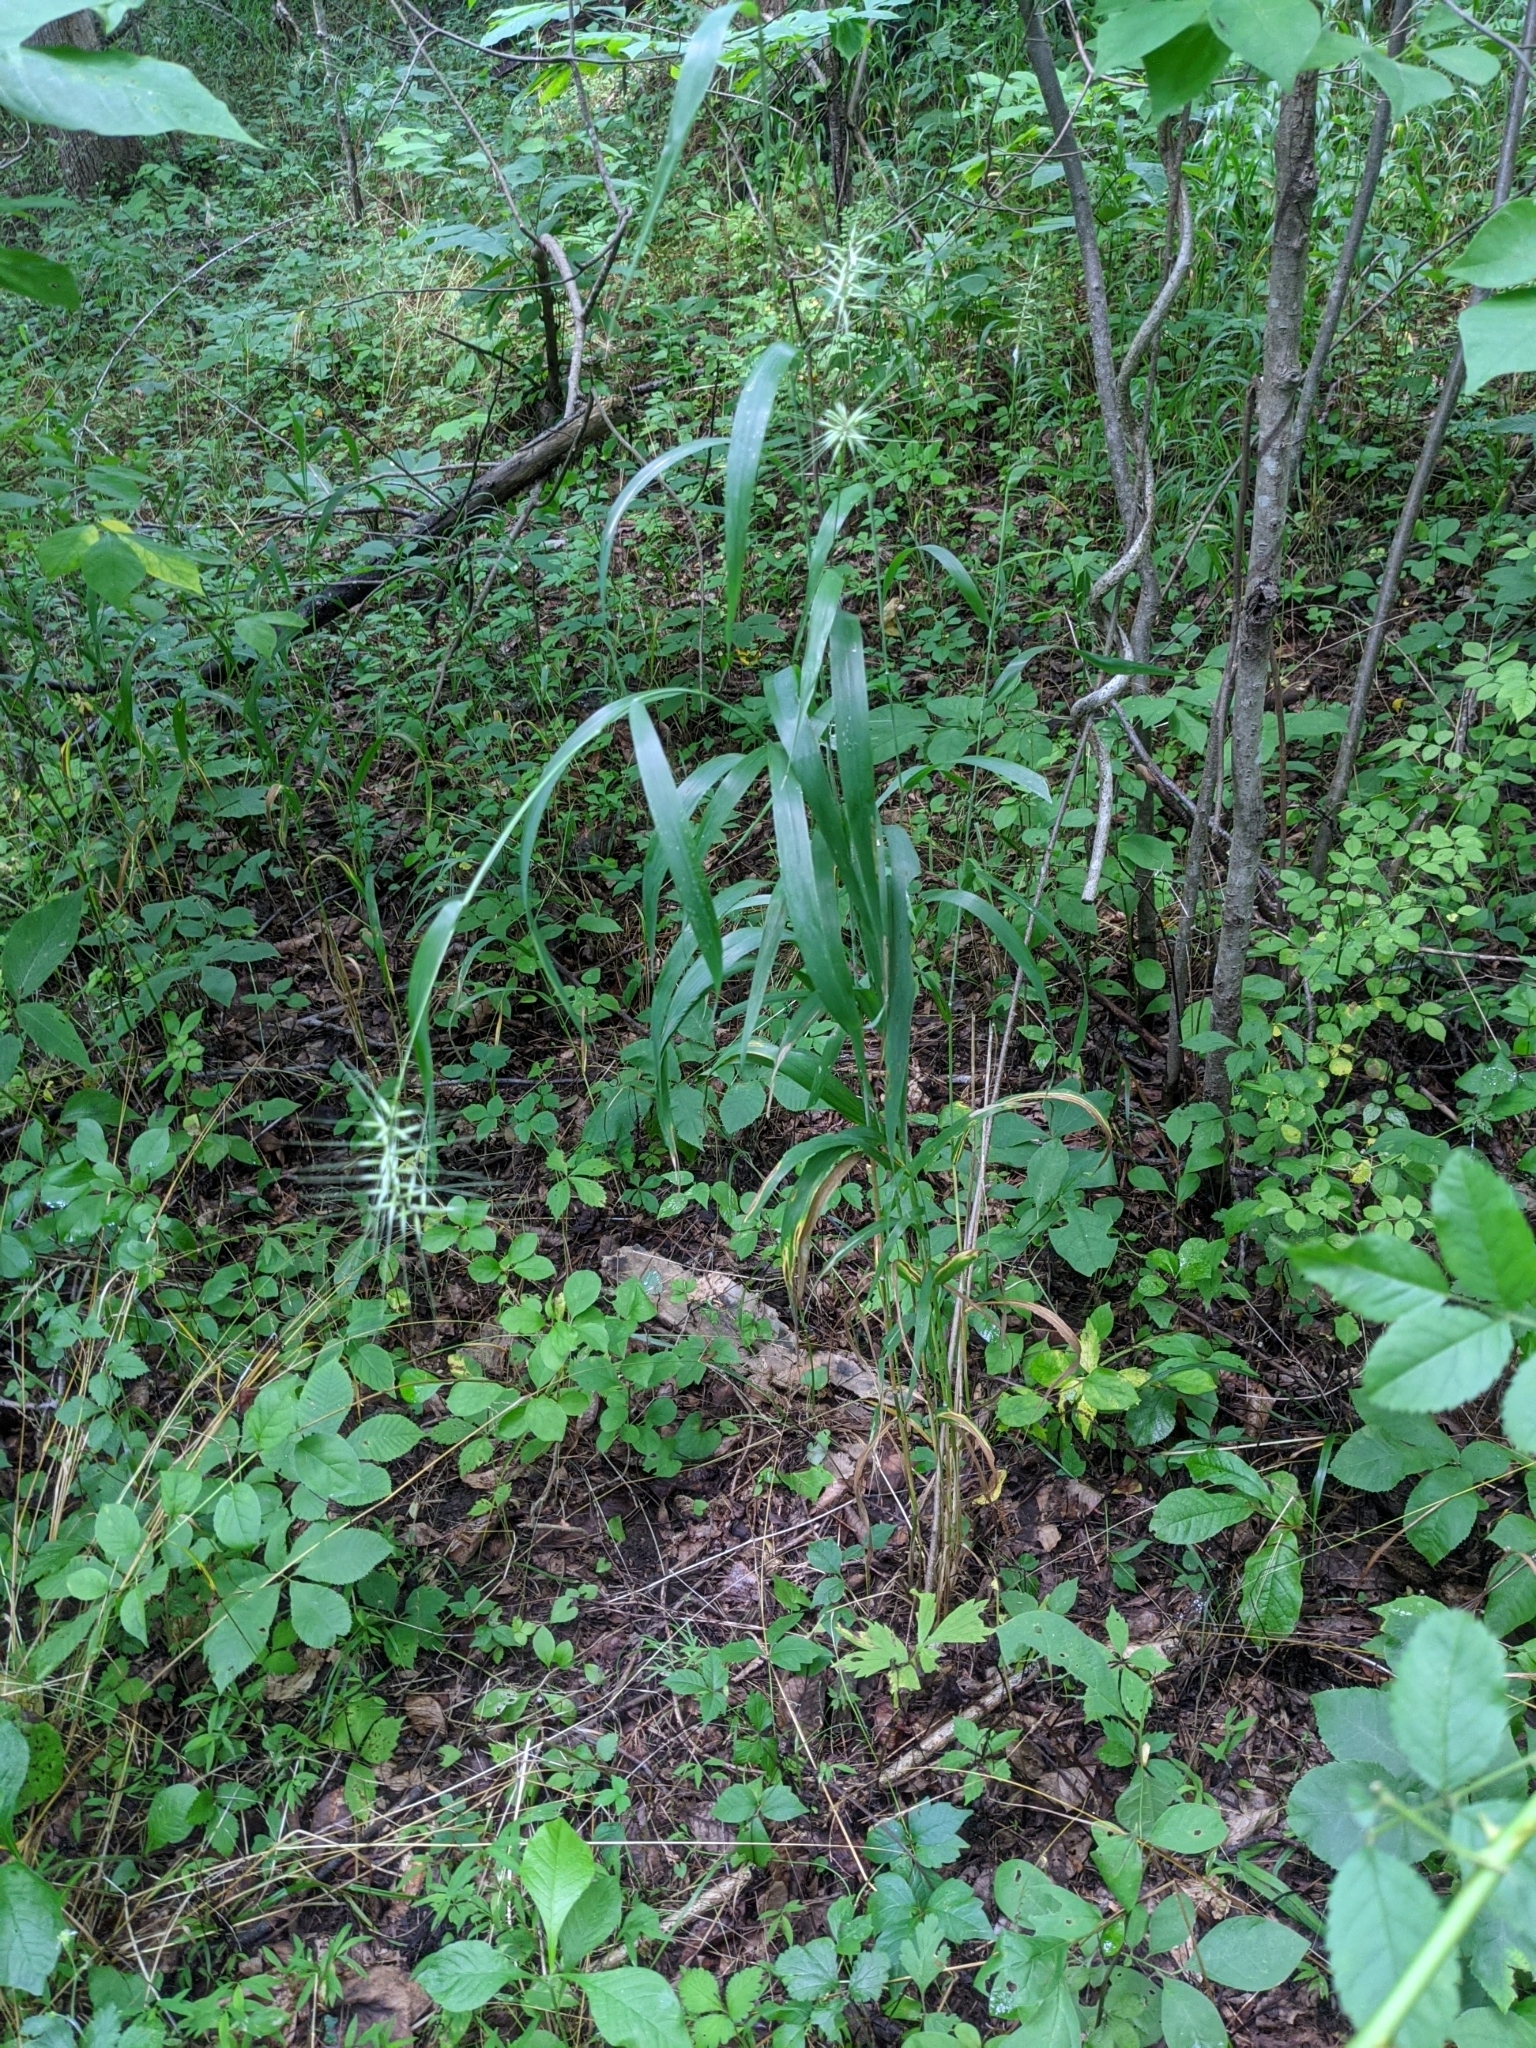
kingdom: Plantae
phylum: Tracheophyta
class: Liliopsida
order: Poales
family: Poaceae
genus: Elymus
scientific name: Elymus hystrix
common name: Bottlebrush grass
